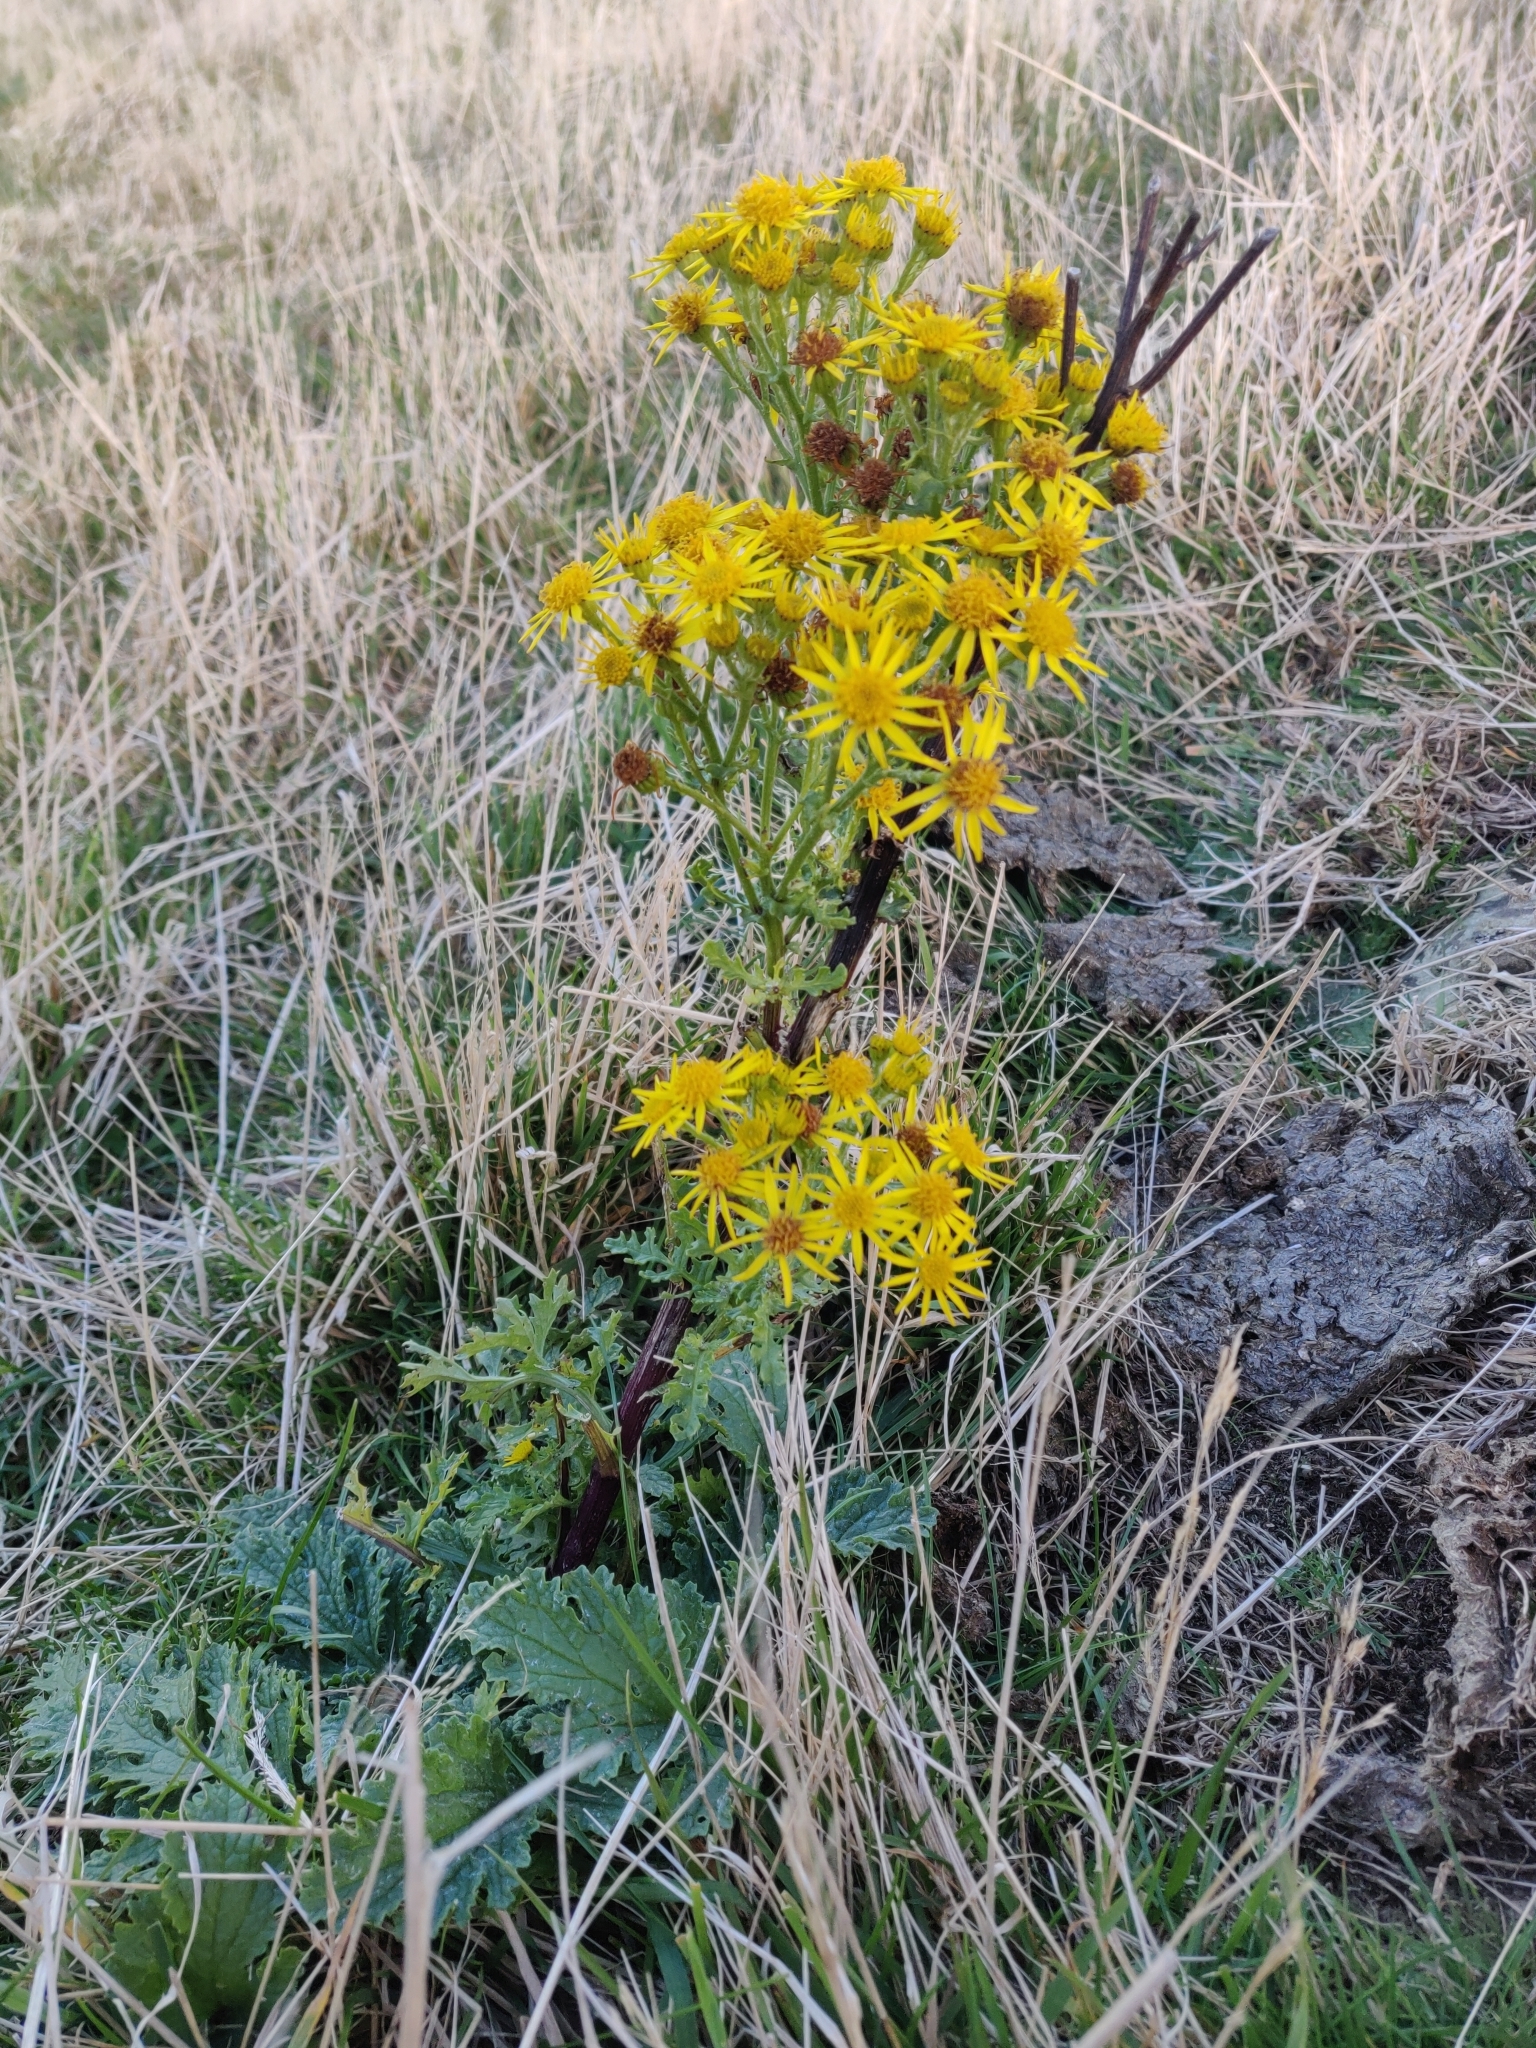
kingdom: Plantae
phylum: Tracheophyta
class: Magnoliopsida
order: Asterales
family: Asteraceae
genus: Jacobaea
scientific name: Jacobaea vulgaris
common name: Stinking willie
